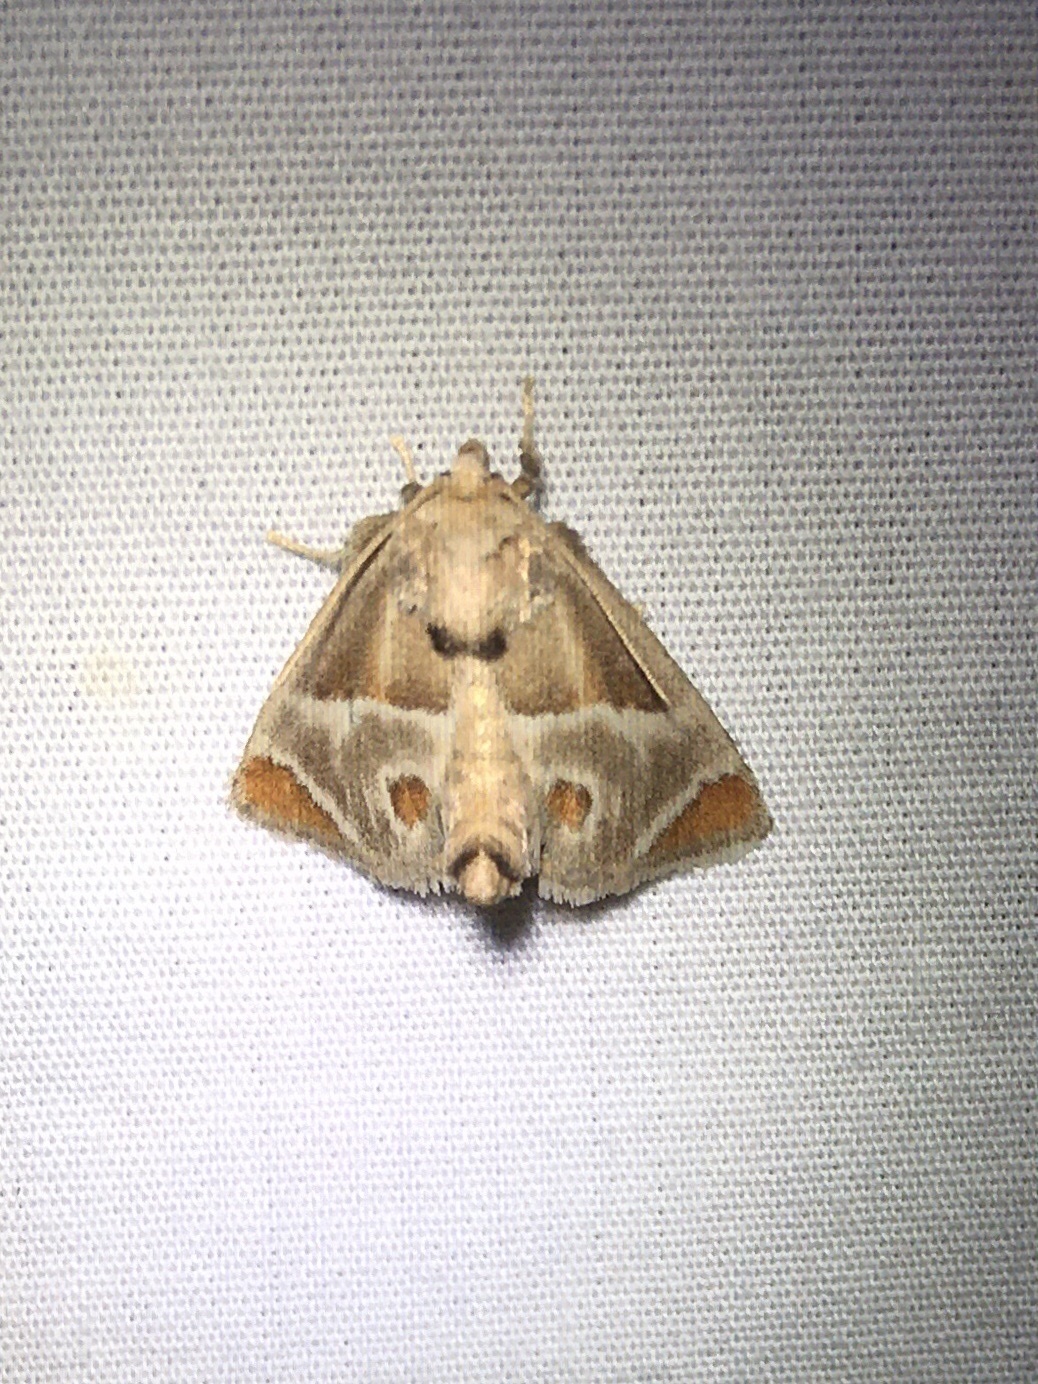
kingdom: Animalia
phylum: Arthropoda
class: Insecta
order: Lepidoptera
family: Limacodidae
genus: Apoda
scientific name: Apoda biguttata
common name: Shagreened slug moth
